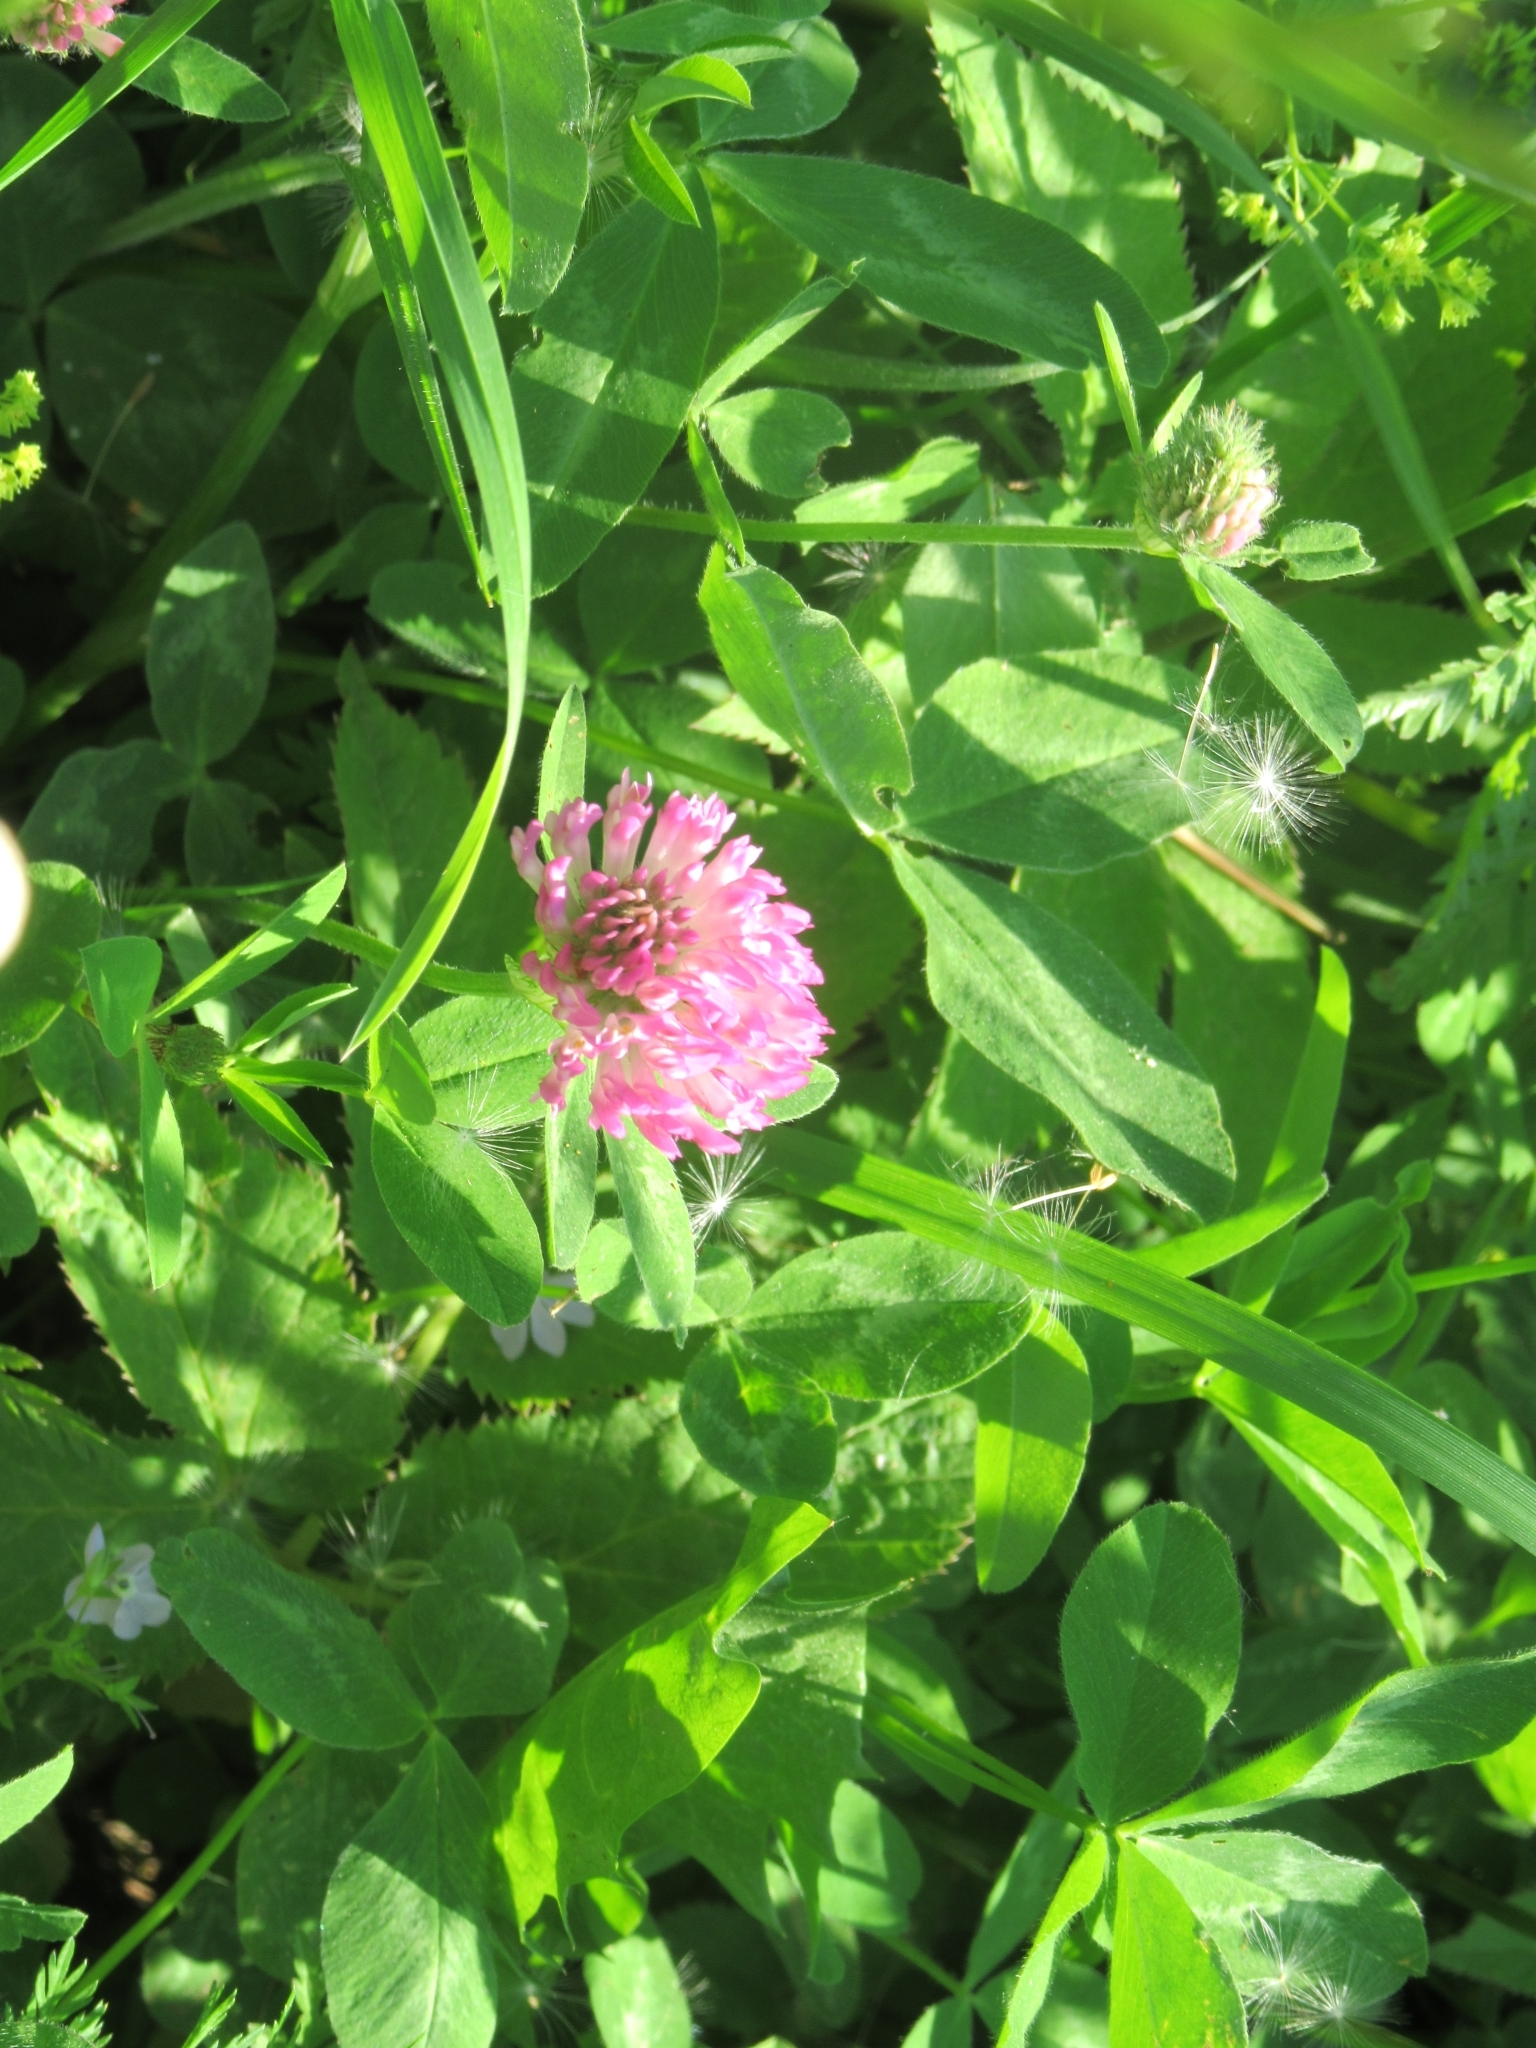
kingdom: Plantae
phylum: Tracheophyta
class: Magnoliopsida
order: Fabales
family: Fabaceae
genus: Trifolium
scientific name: Trifolium pratense
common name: Red clover
